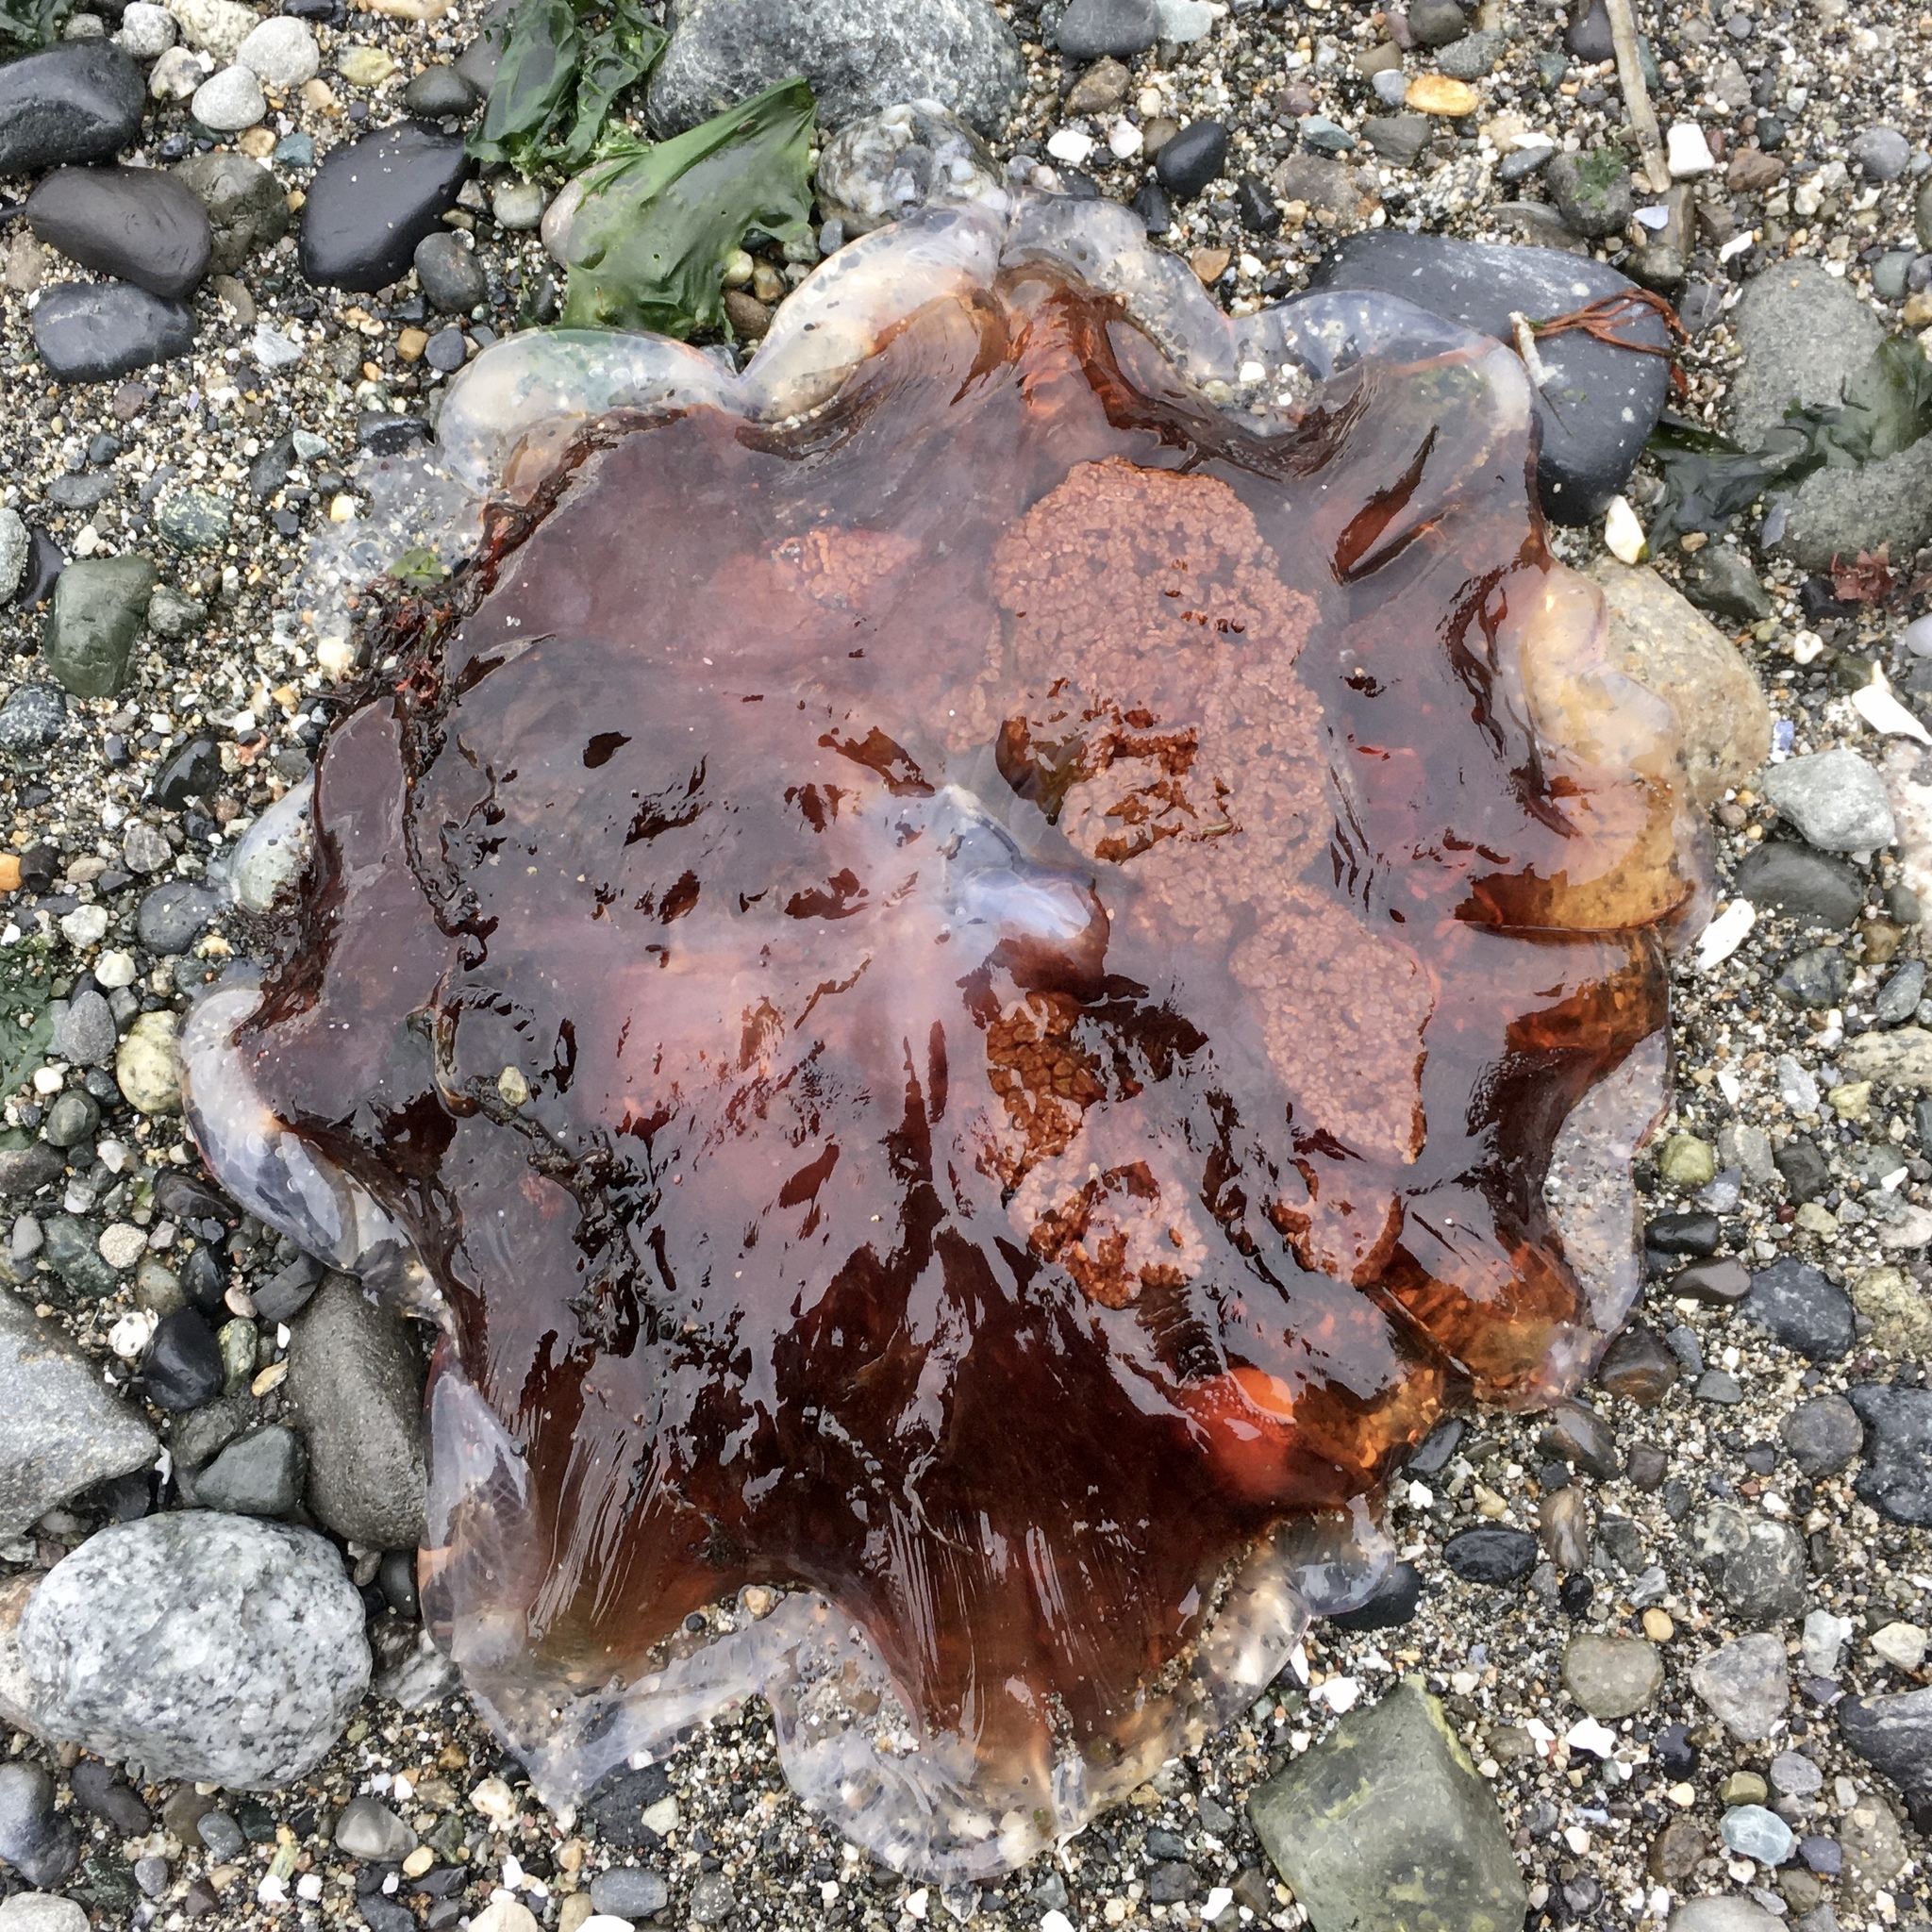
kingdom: Animalia
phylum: Cnidaria
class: Scyphozoa
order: Semaeostomeae
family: Cyaneidae
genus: Cyanea
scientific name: Cyanea ferruginea
